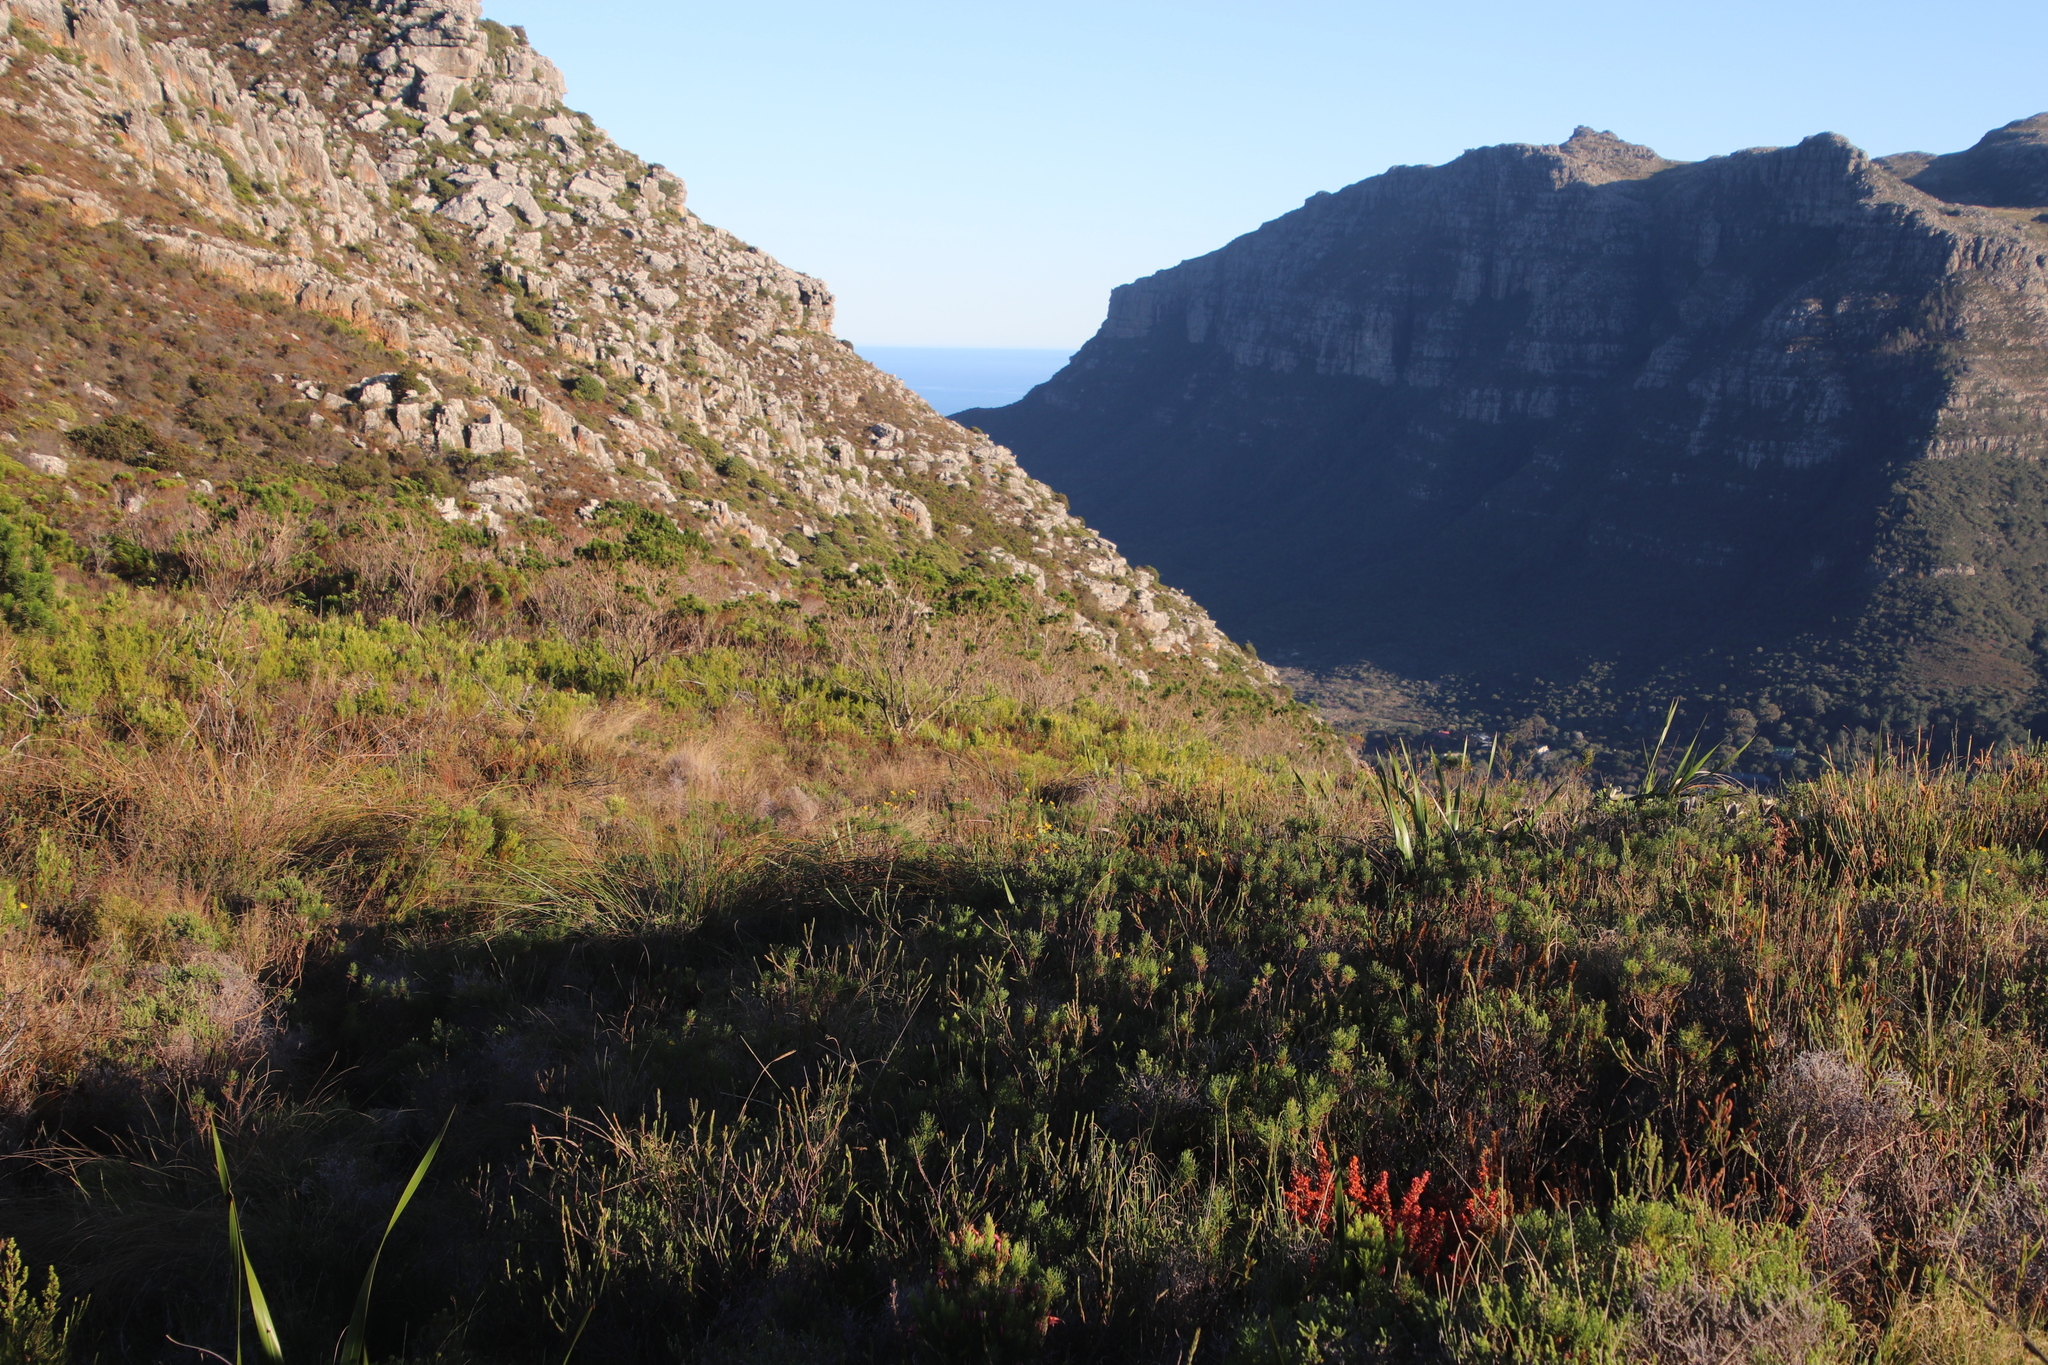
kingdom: Plantae
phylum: Tracheophyta
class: Magnoliopsida
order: Myrtales
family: Penaeaceae
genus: Penaea
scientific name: Penaea mucronata
